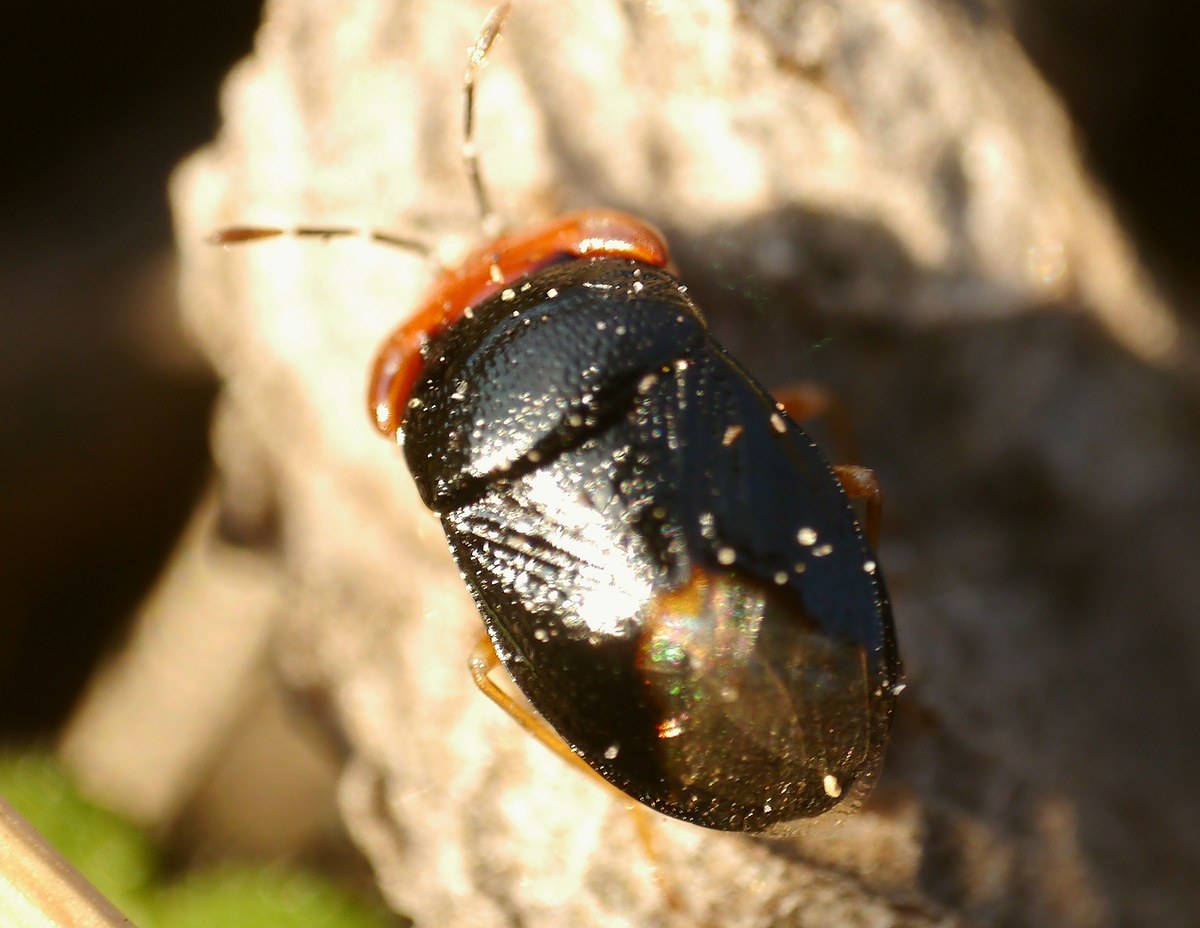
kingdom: Animalia
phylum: Arthropoda
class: Insecta
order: Hemiptera
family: Geocoridae
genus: Geocoris
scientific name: Geocoris erythrocephala
